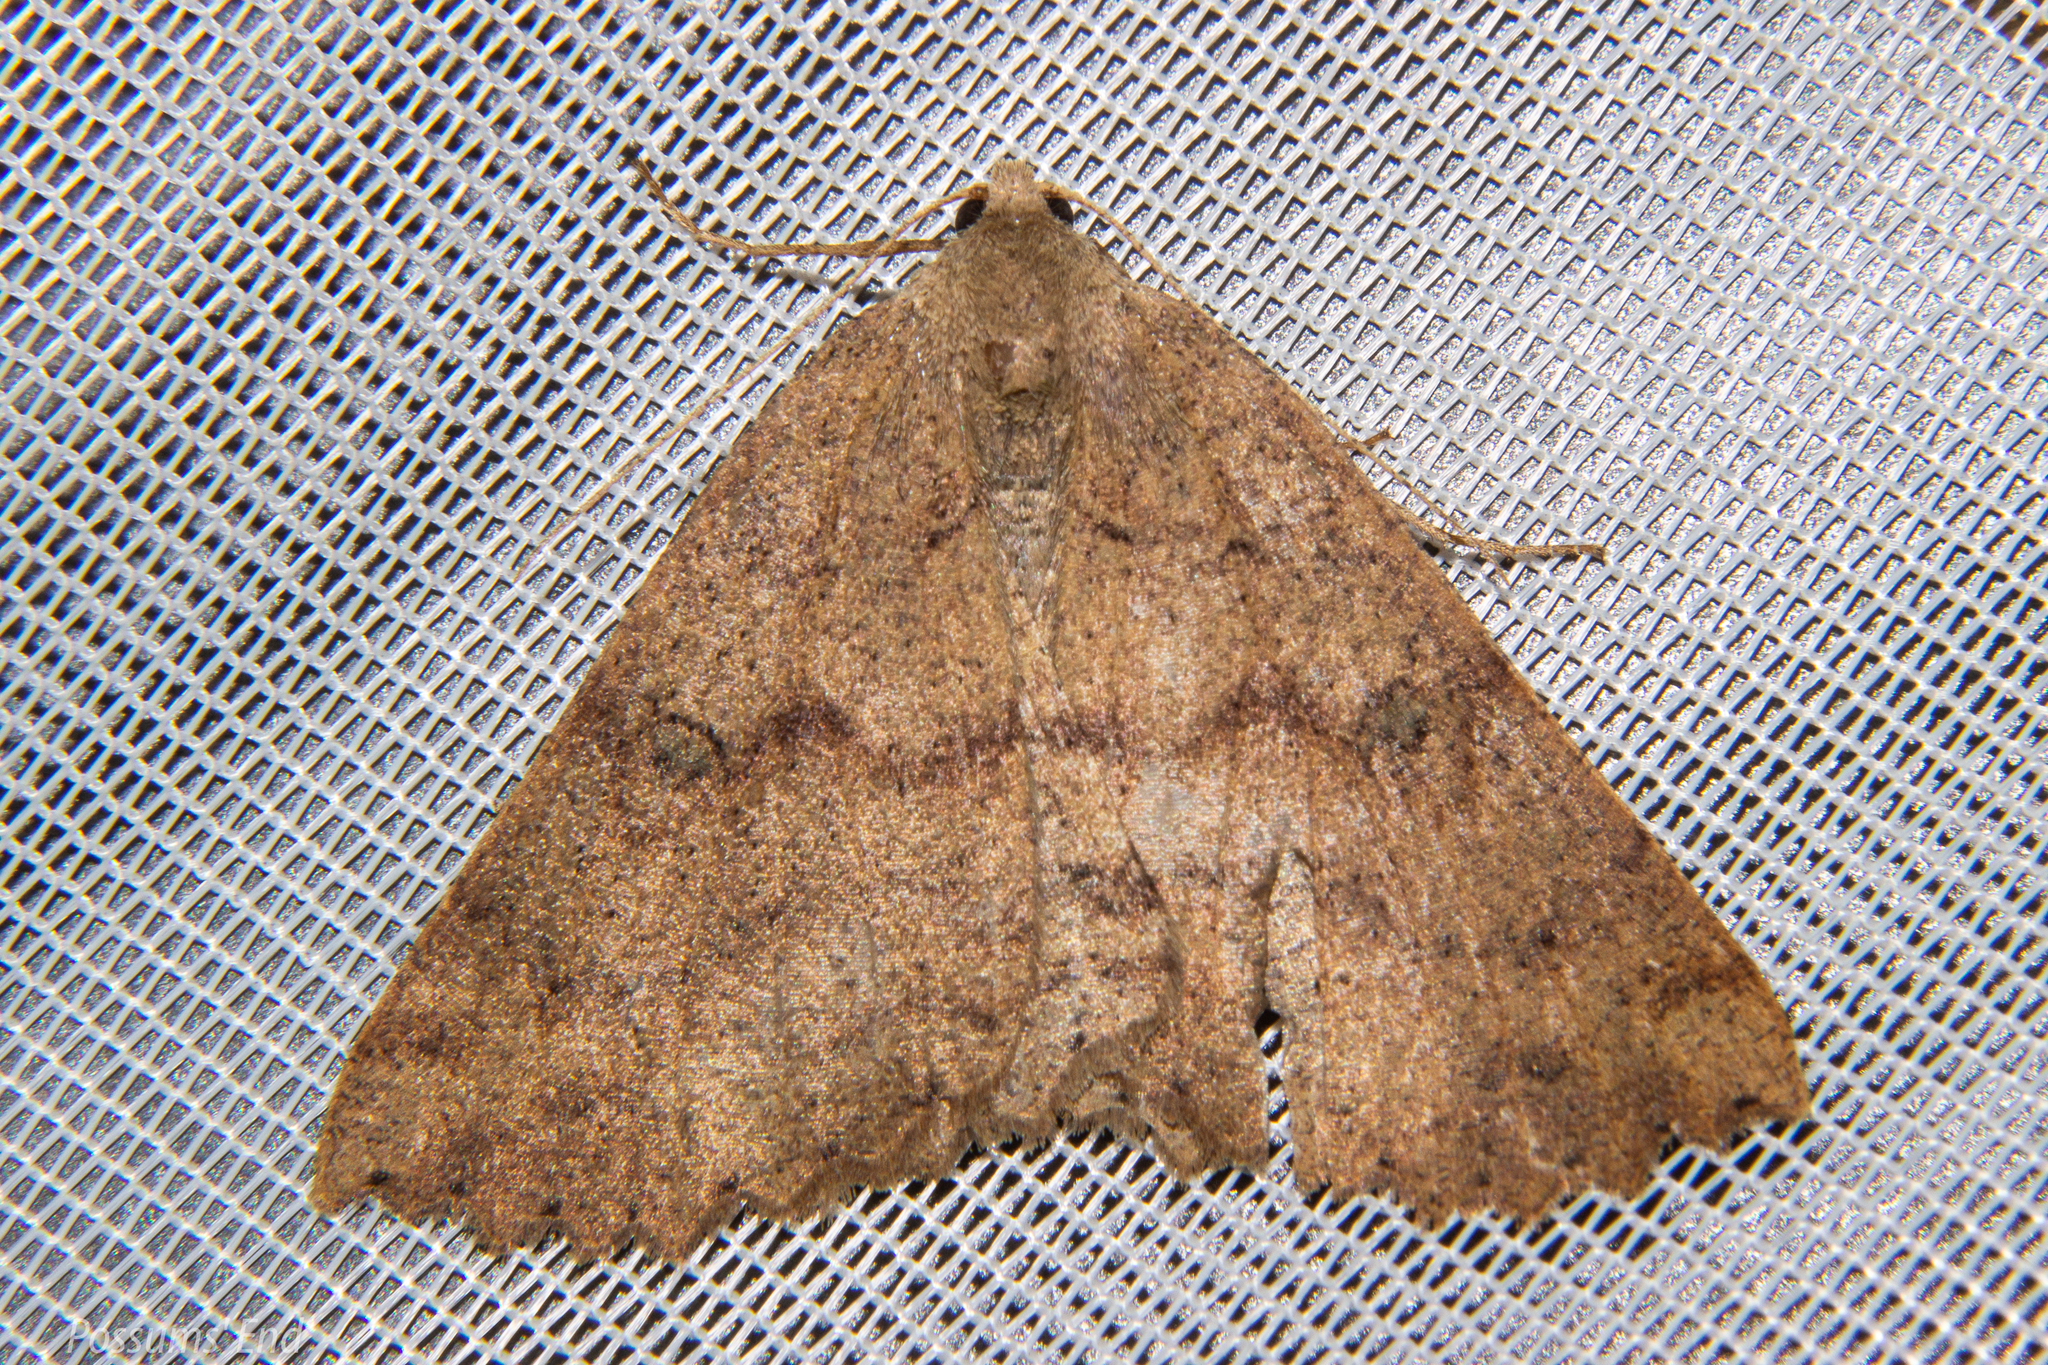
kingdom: Animalia
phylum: Arthropoda
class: Insecta
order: Lepidoptera
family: Geometridae
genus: Cleora
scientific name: Cleora scriptaria
